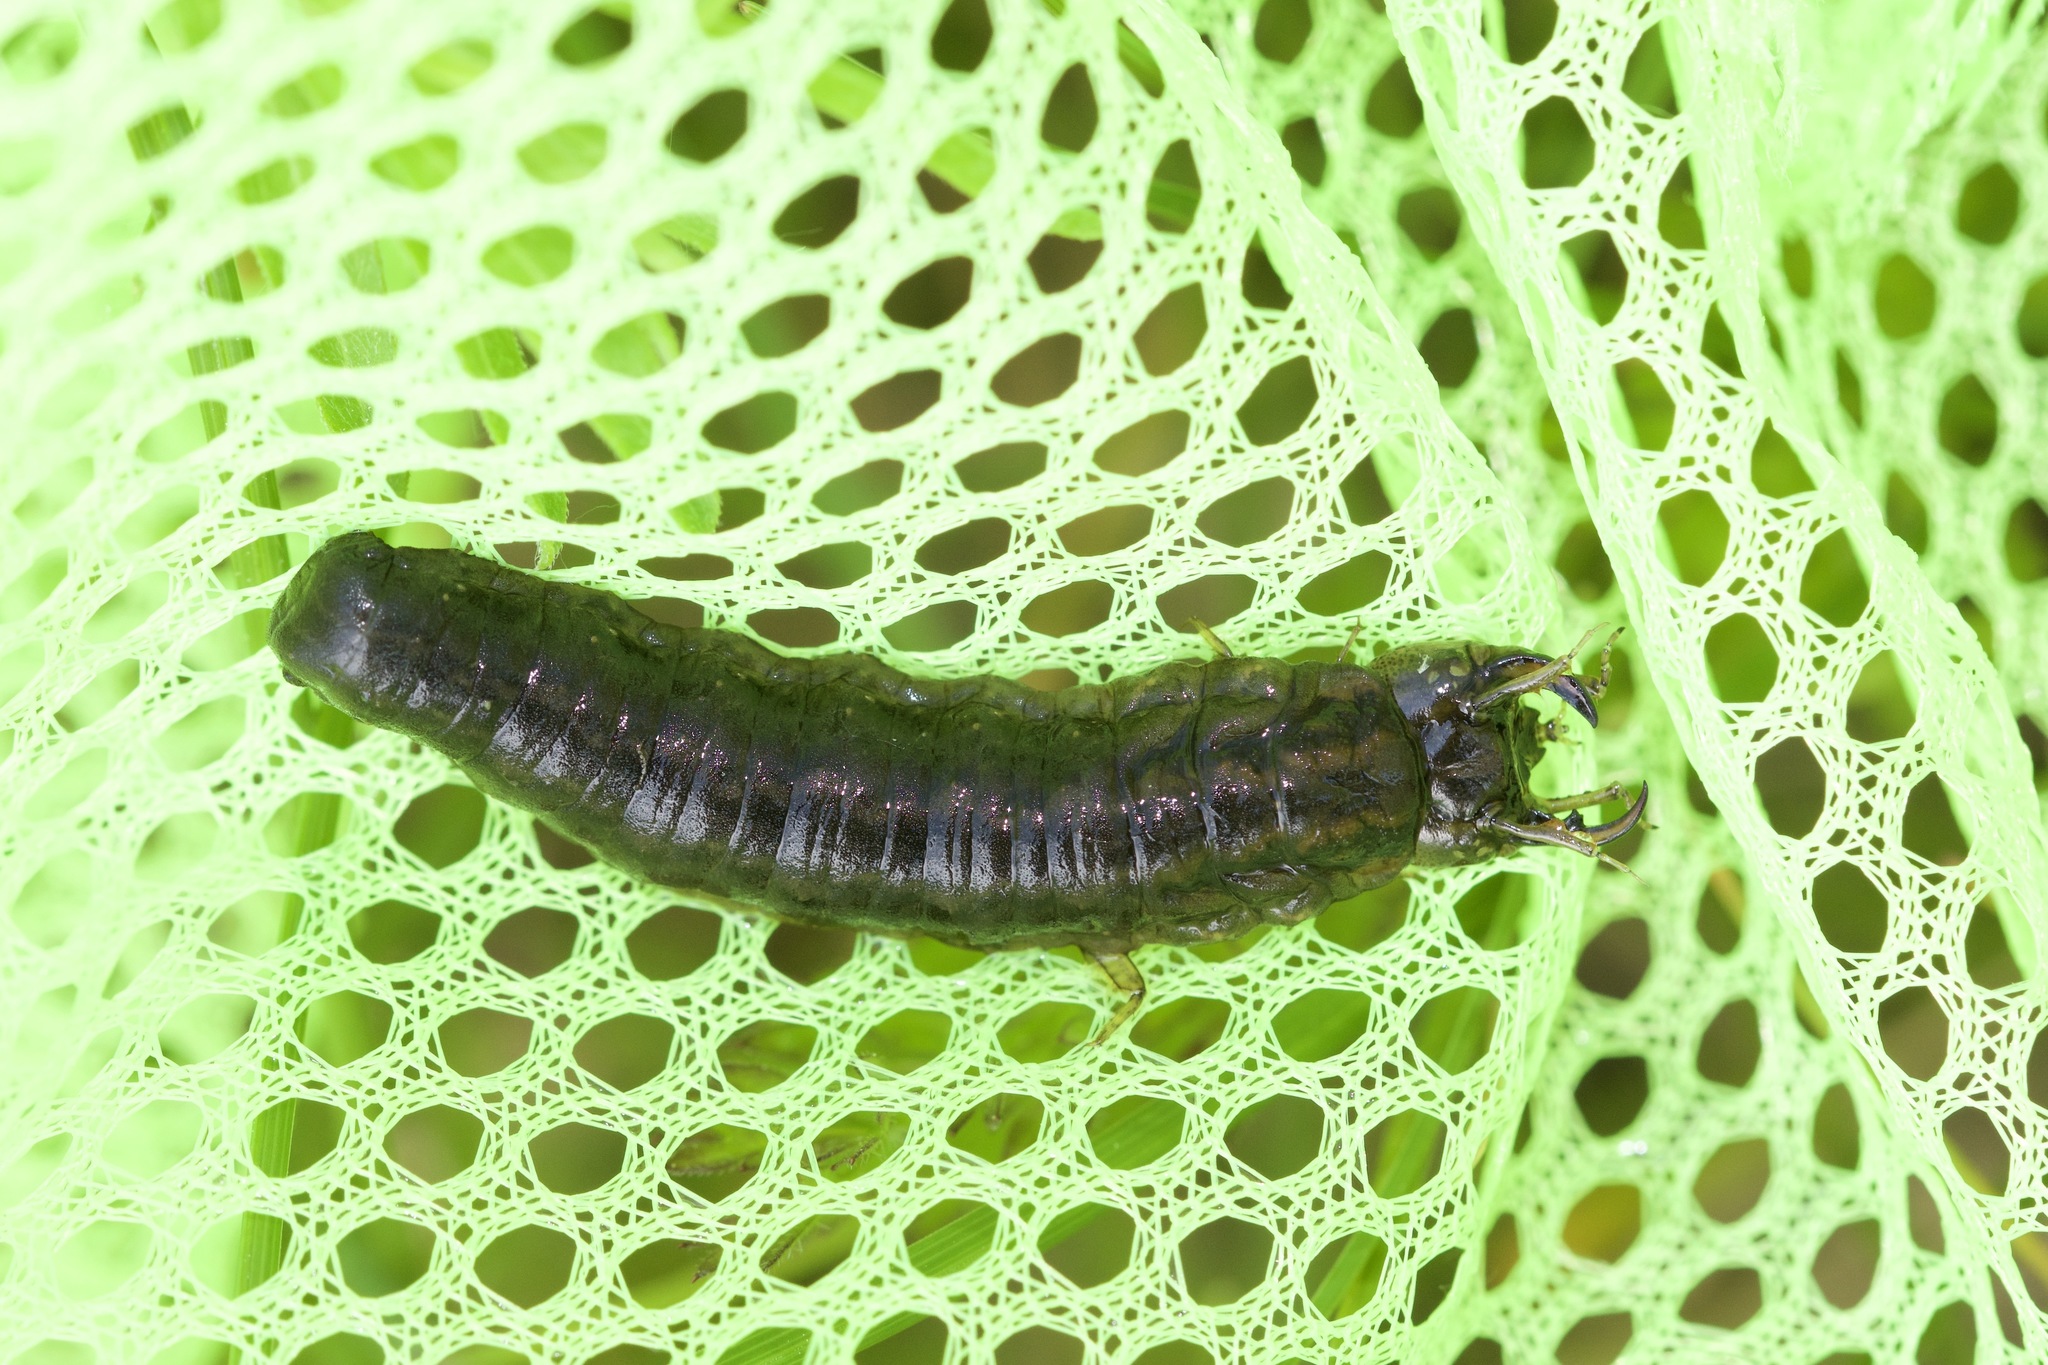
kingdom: Animalia
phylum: Arthropoda
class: Insecta
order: Coleoptera
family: Hydrophilidae
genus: Hydrophilus
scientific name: Hydrophilus triangularis
